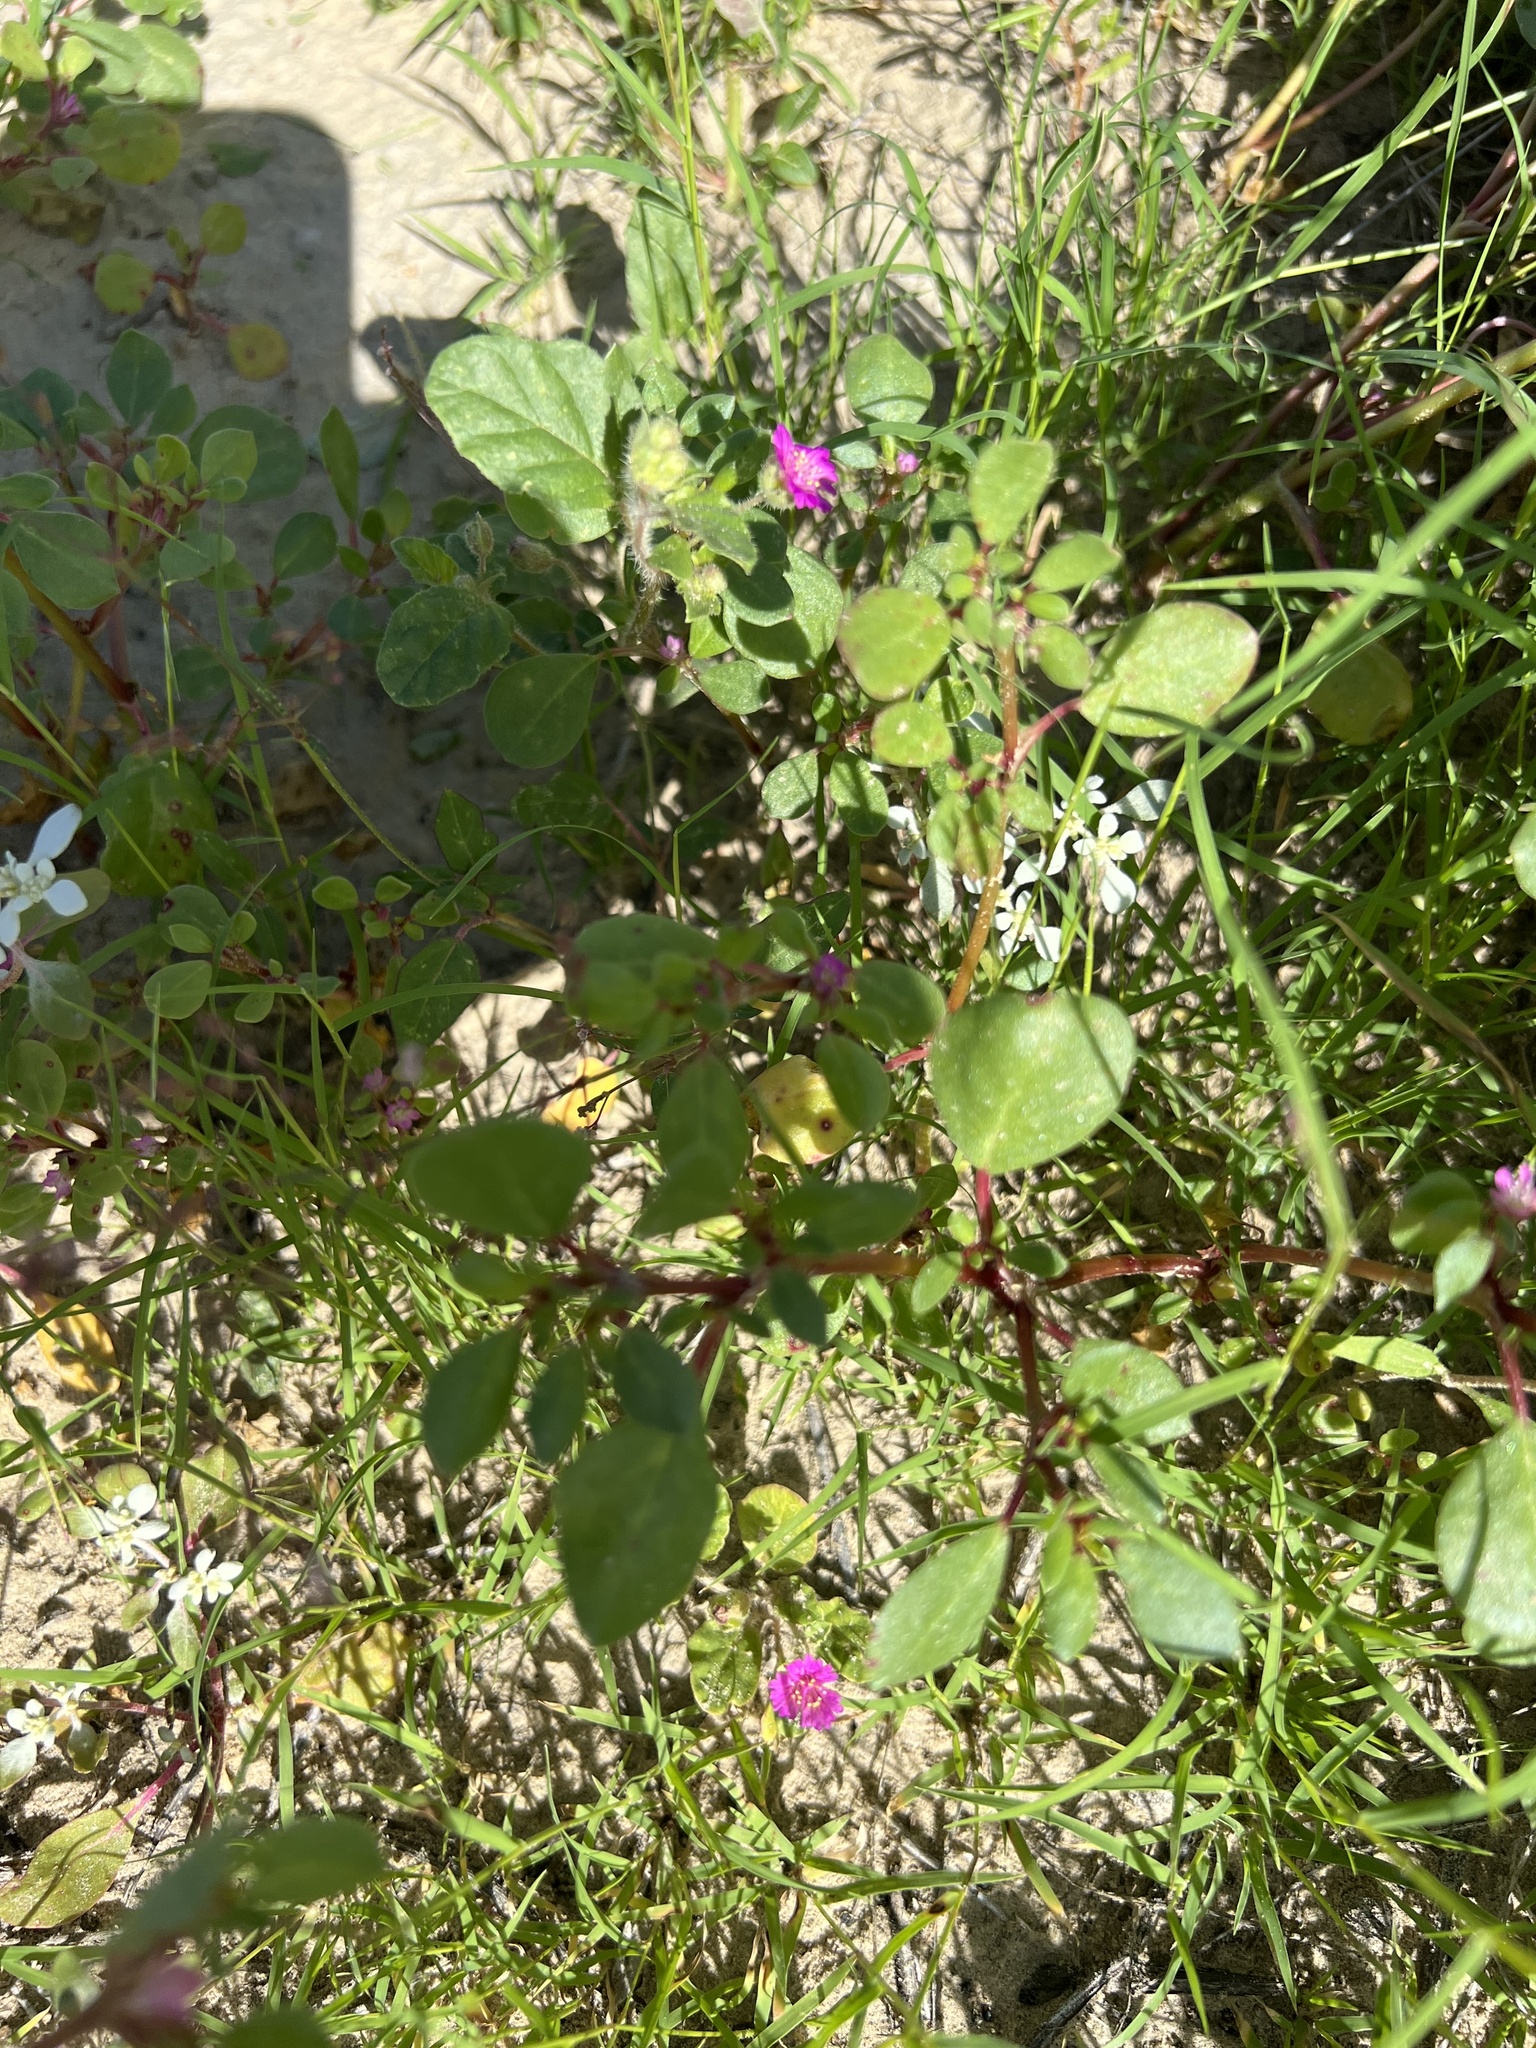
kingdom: Plantae
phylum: Tracheophyta
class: Magnoliopsida
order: Caryophyllales
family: Nyctaginaceae
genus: Allionia
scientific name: Allionia incarnata
